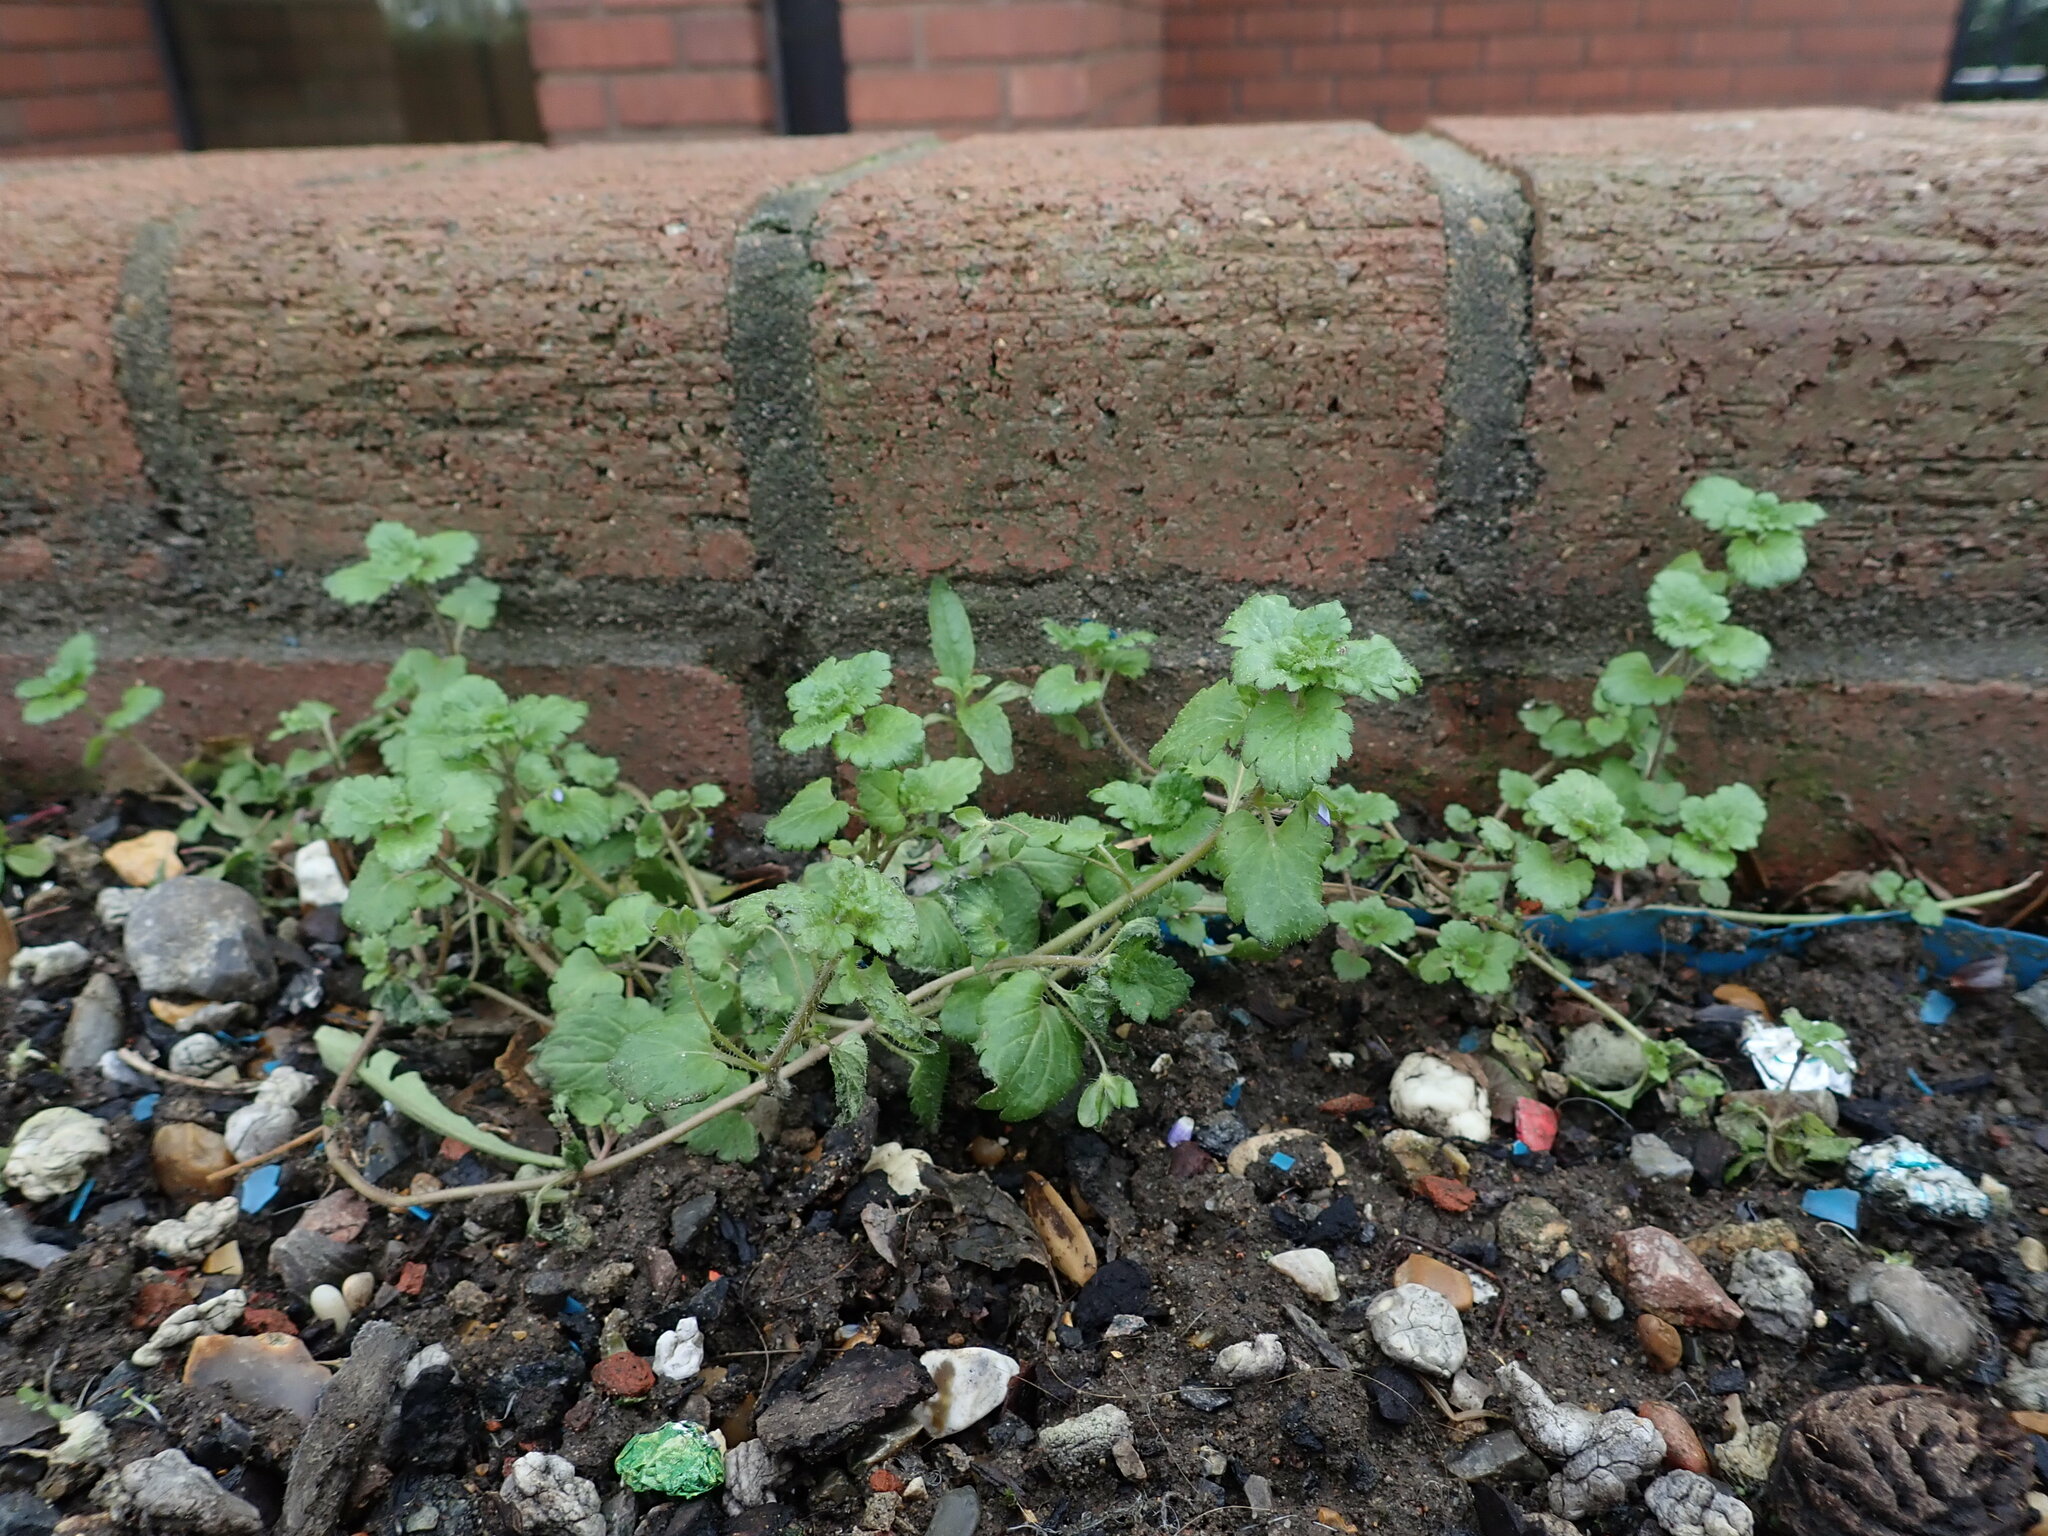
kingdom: Plantae
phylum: Tracheophyta
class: Magnoliopsida
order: Lamiales
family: Plantaginaceae
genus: Veronica
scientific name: Veronica persica
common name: Common field-speedwell
